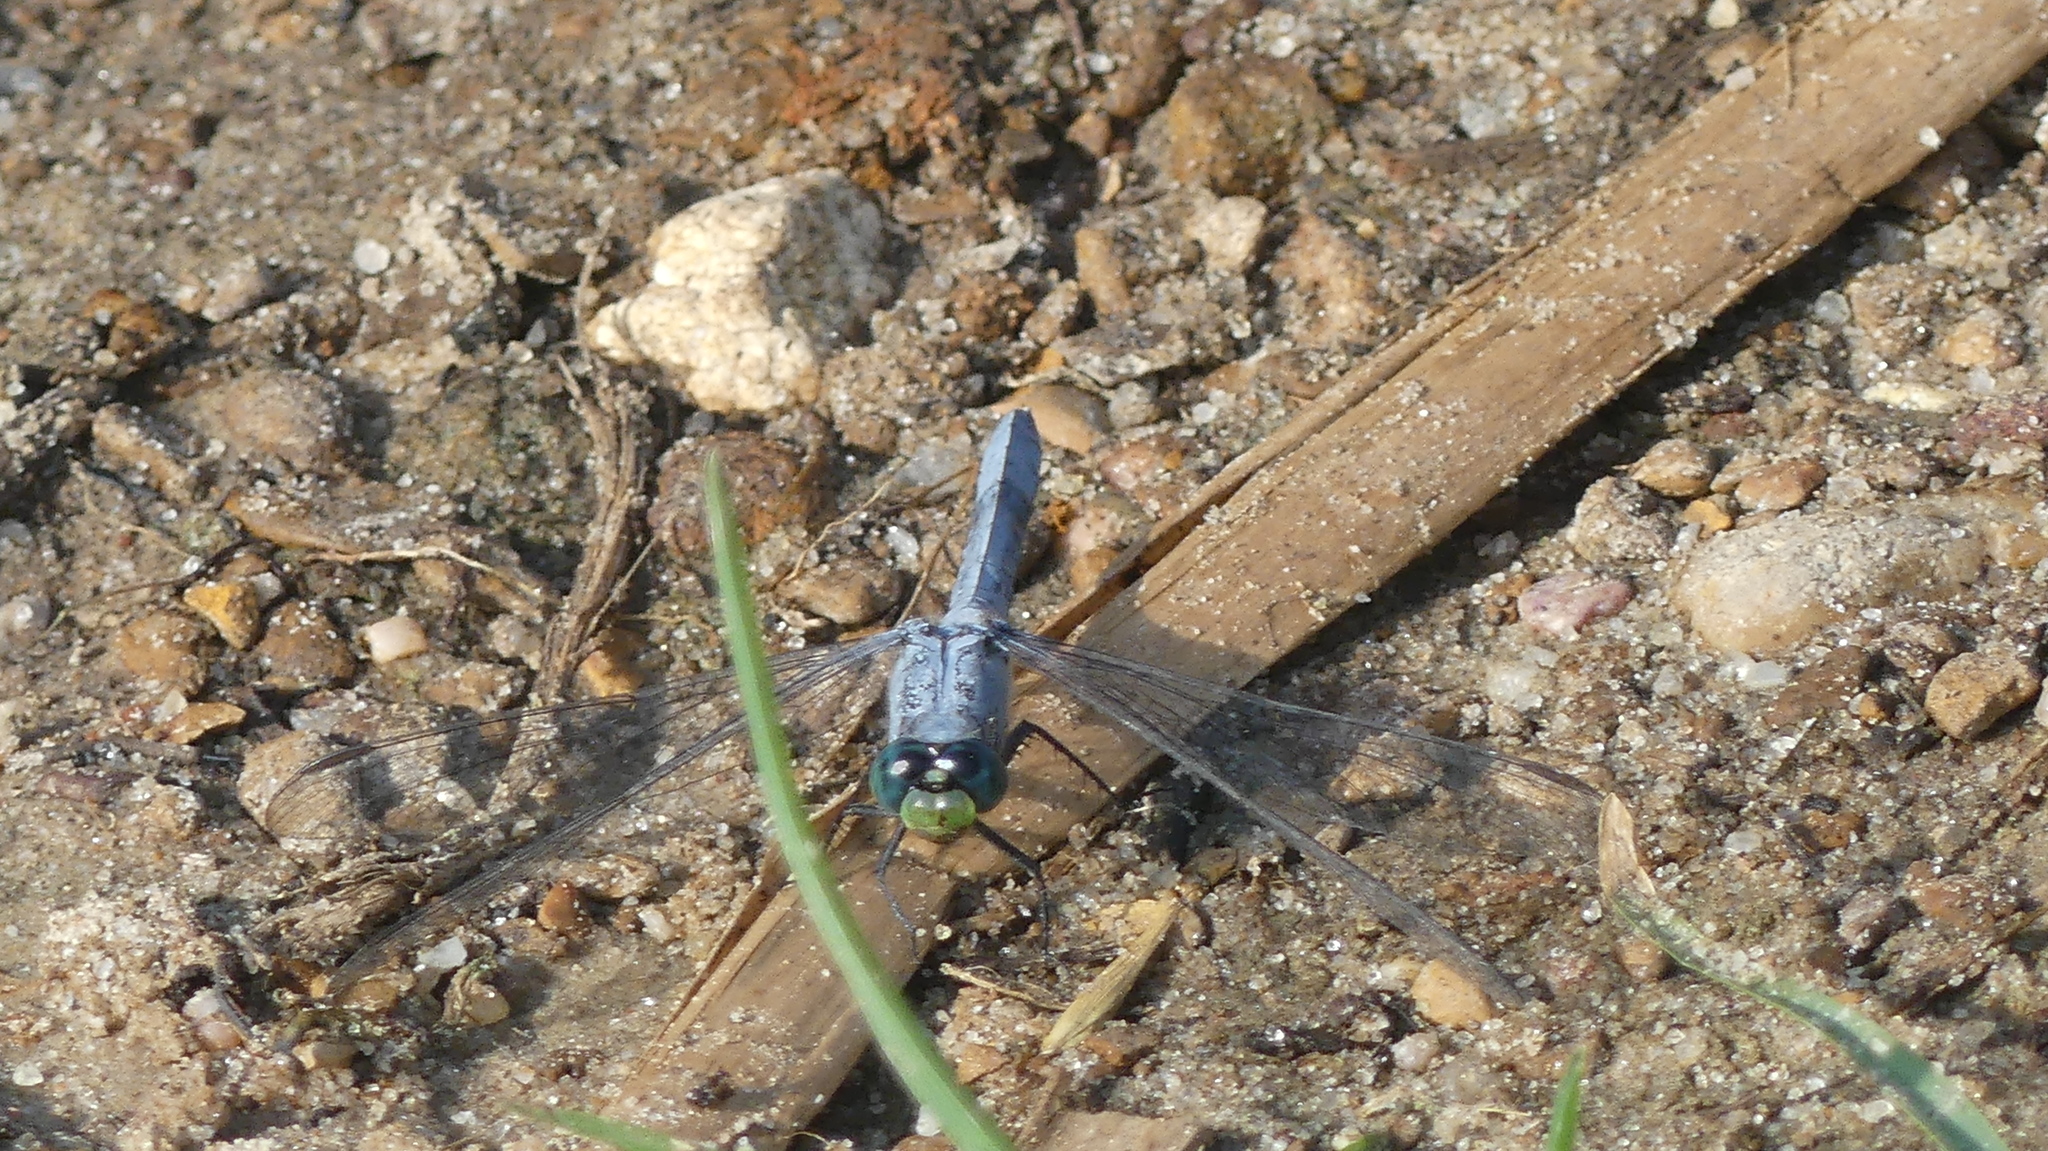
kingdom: Animalia
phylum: Arthropoda
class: Insecta
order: Odonata
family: Libellulidae
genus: Erythemis
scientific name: Erythemis simplicicollis
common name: Eastern pondhawk
